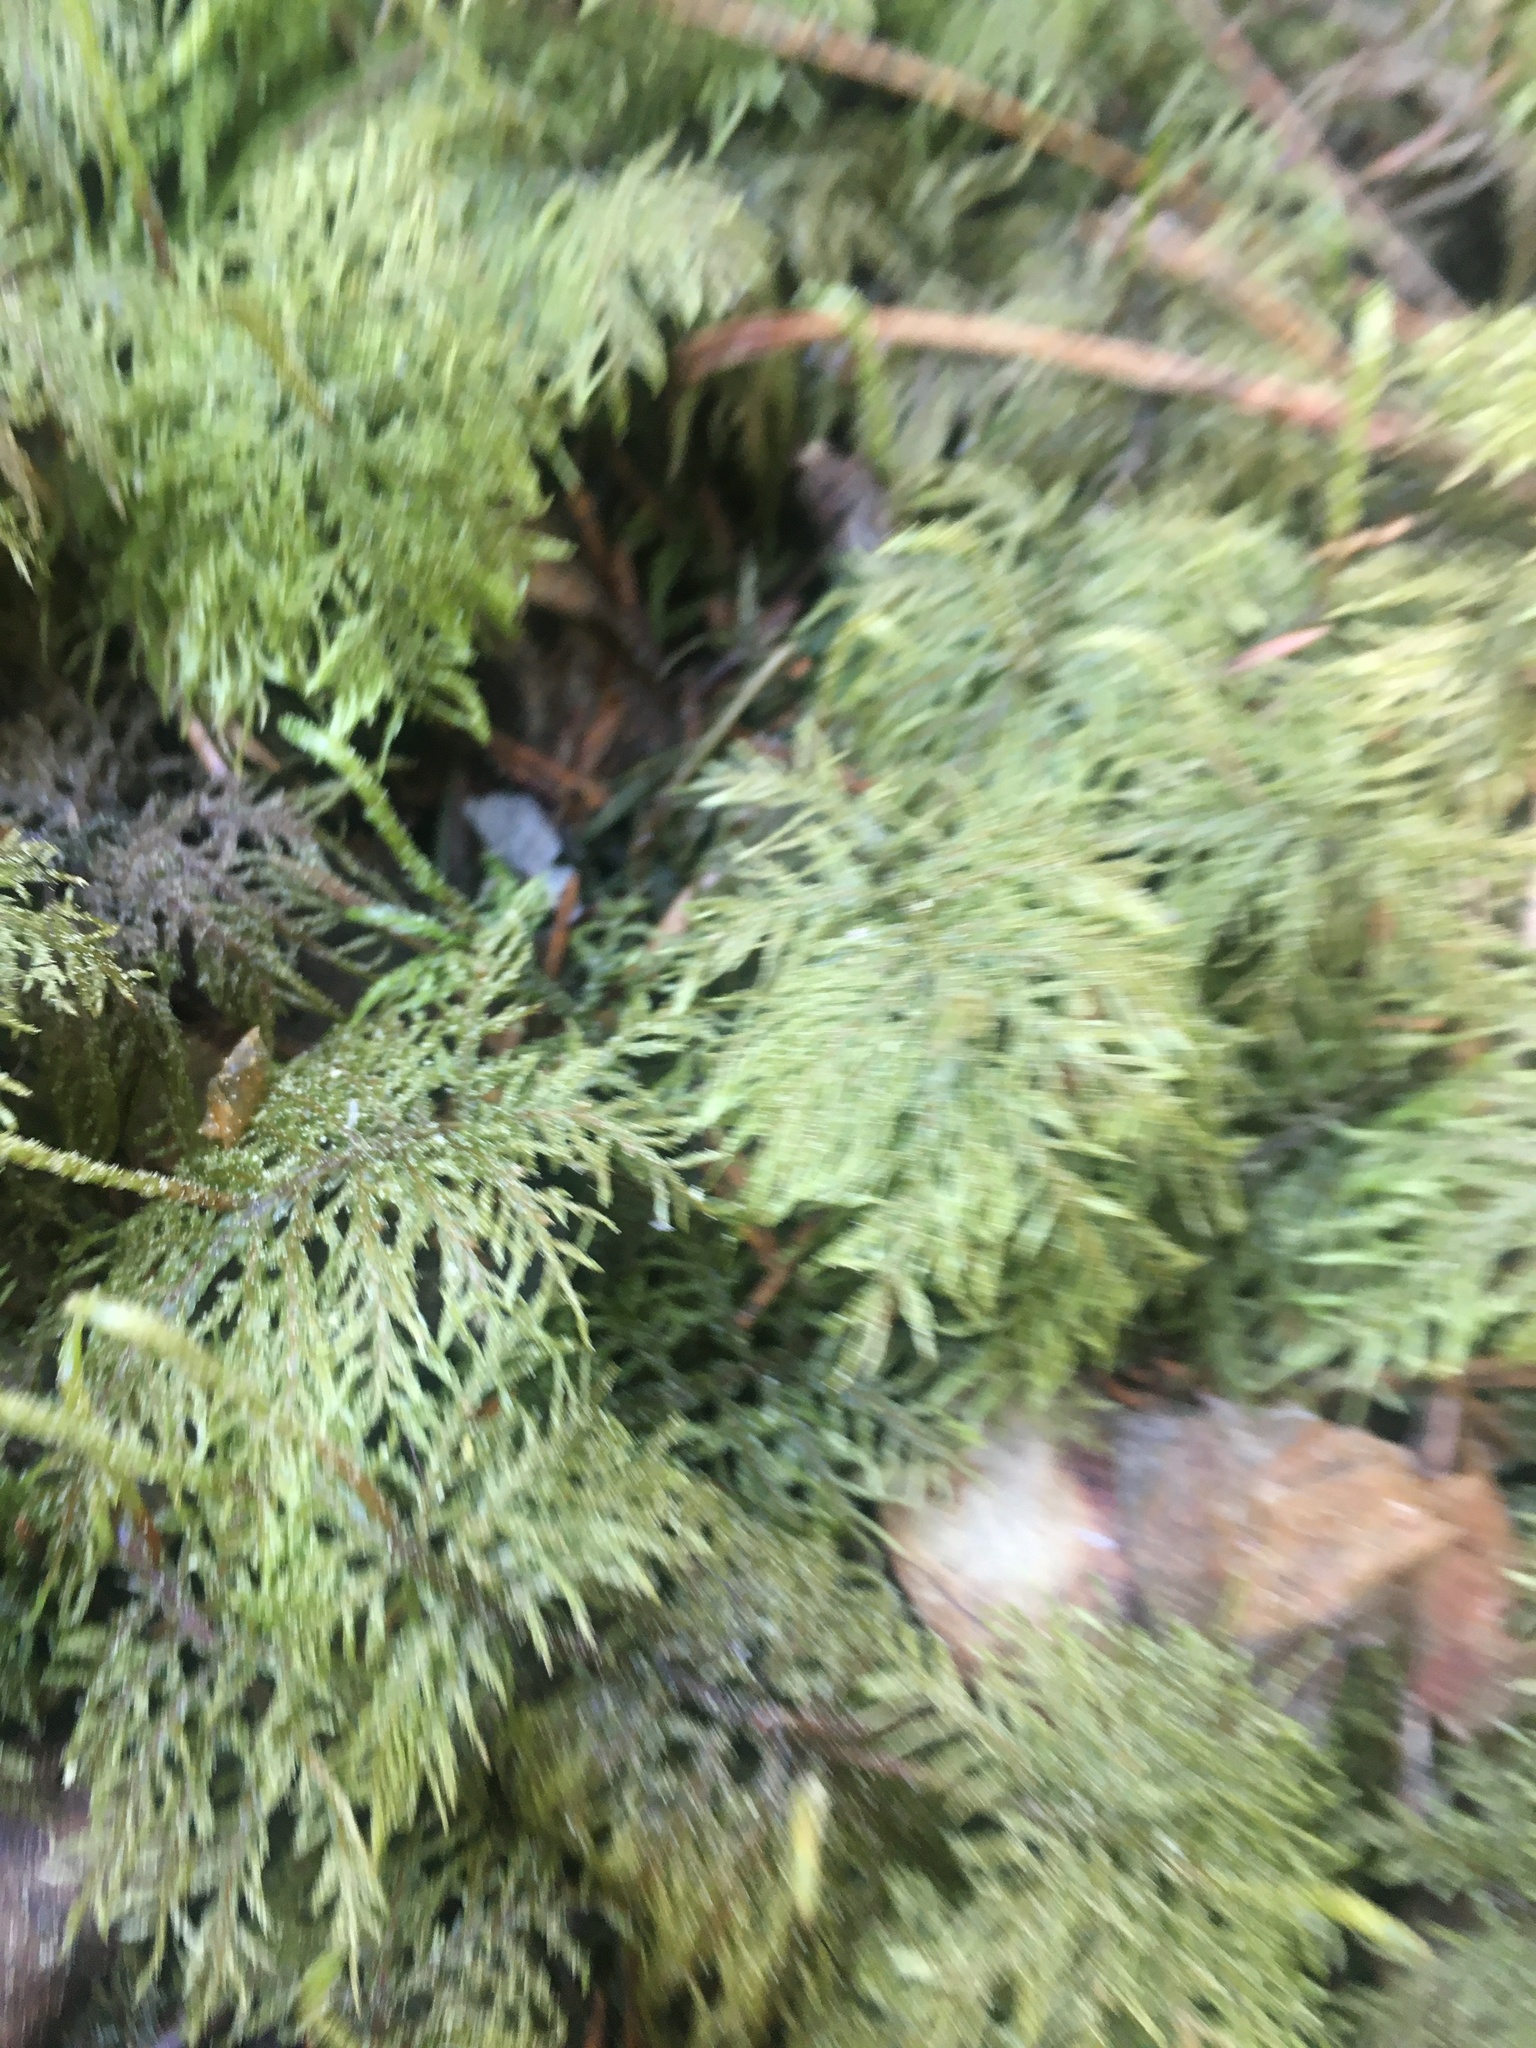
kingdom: Plantae
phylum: Bryophyta
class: Bryopsida
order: Hypnales
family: Hylocomiaceae
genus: Hylocomium
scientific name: Hylocomium splendens
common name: Stairstep moss
